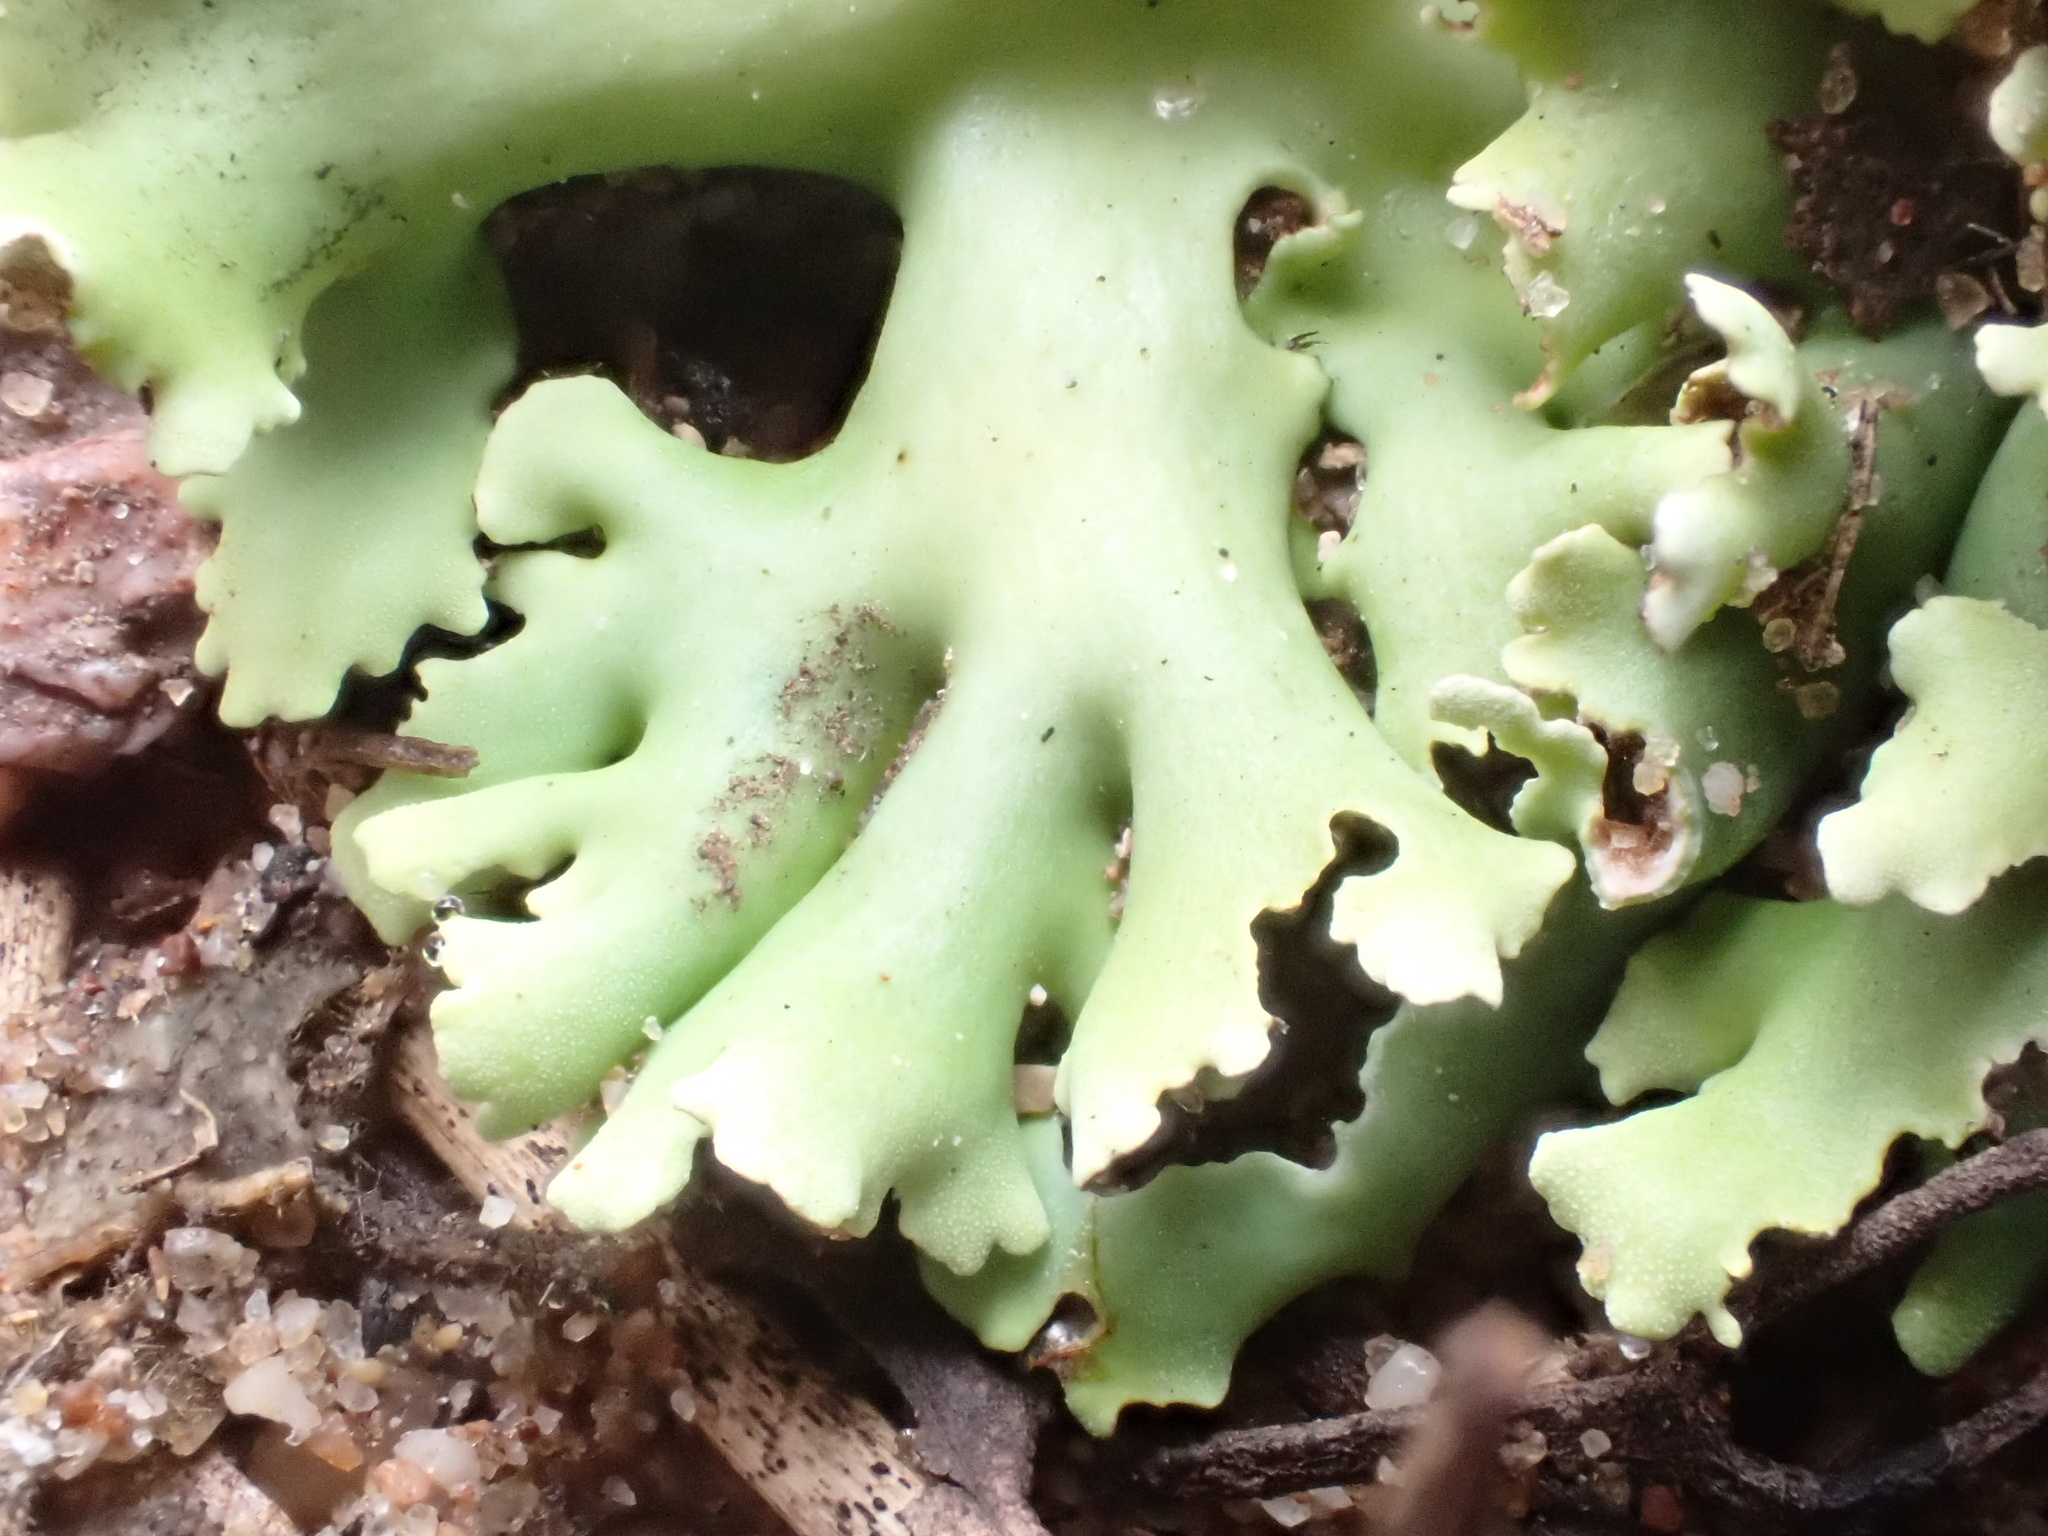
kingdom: Fungi
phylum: Ascomycota
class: Lecanoromycetes
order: Lecanorales
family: Cladoniaceae
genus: Cladia
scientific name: Cladia muelleri
